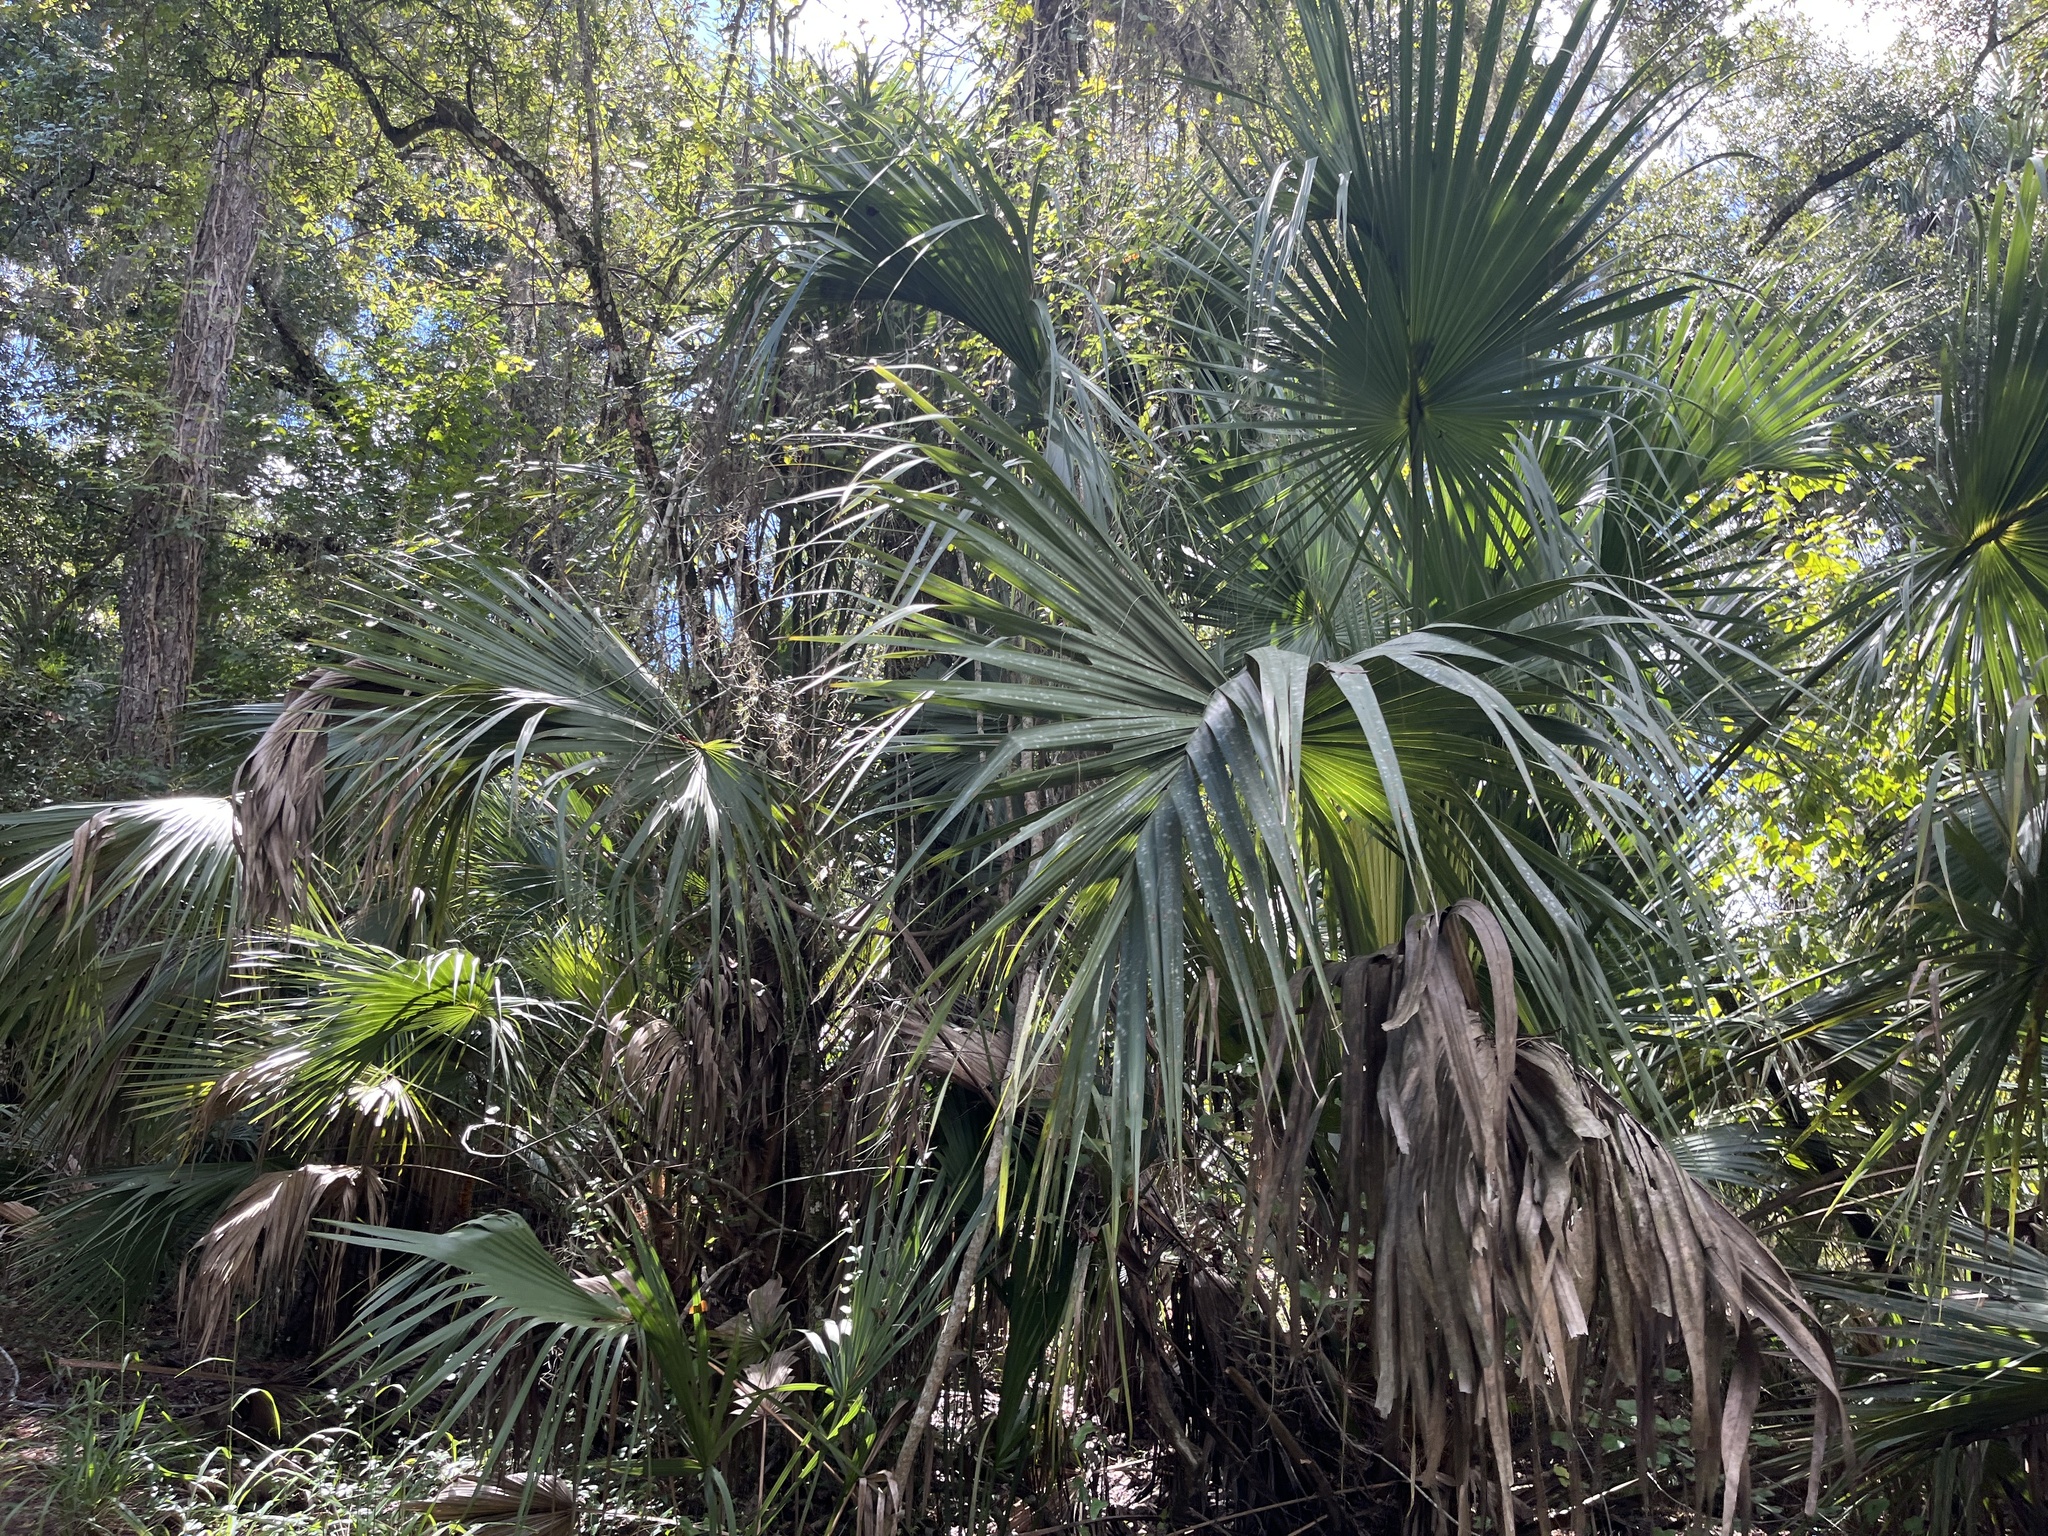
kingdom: Plantae
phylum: Tracheophyta
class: Liliopsida
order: Arecales
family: Arecaceae
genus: Sabal
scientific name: Sabal palmetto
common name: Blue palmetto
